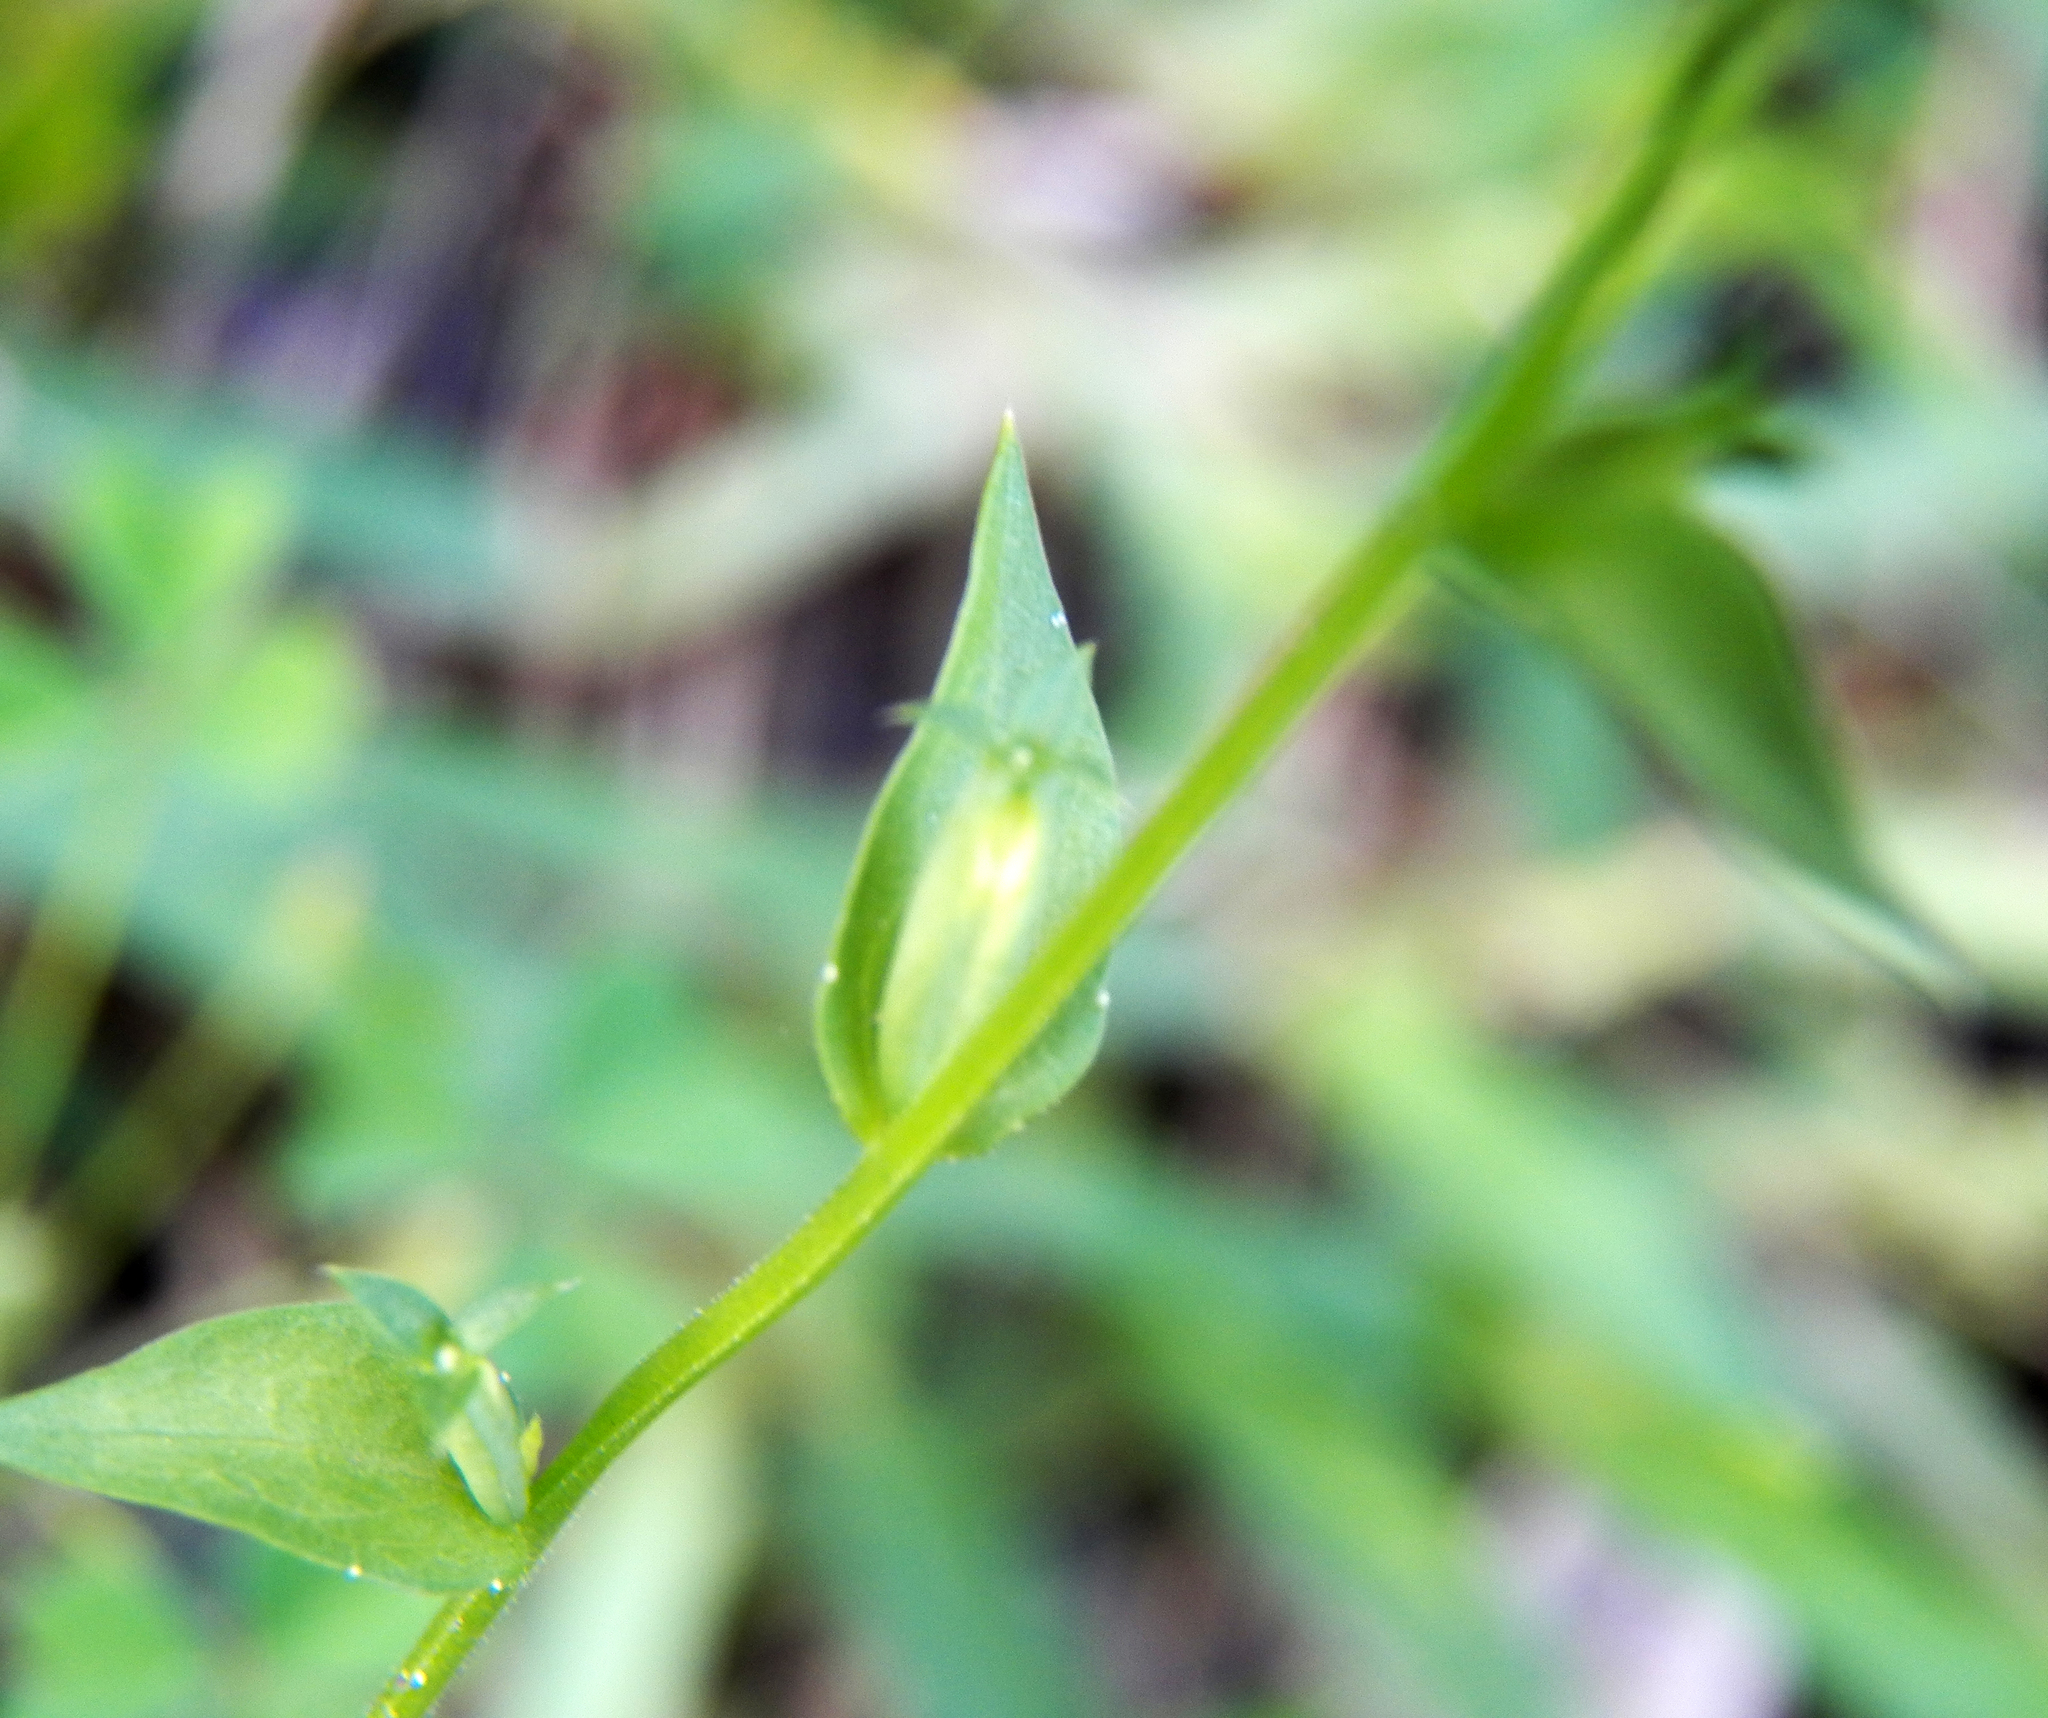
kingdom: Plantae
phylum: Tracheophyta
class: Magnoliopsida
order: Asterales
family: Campanulaceae
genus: Triodanis
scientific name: Triodanis biflora
